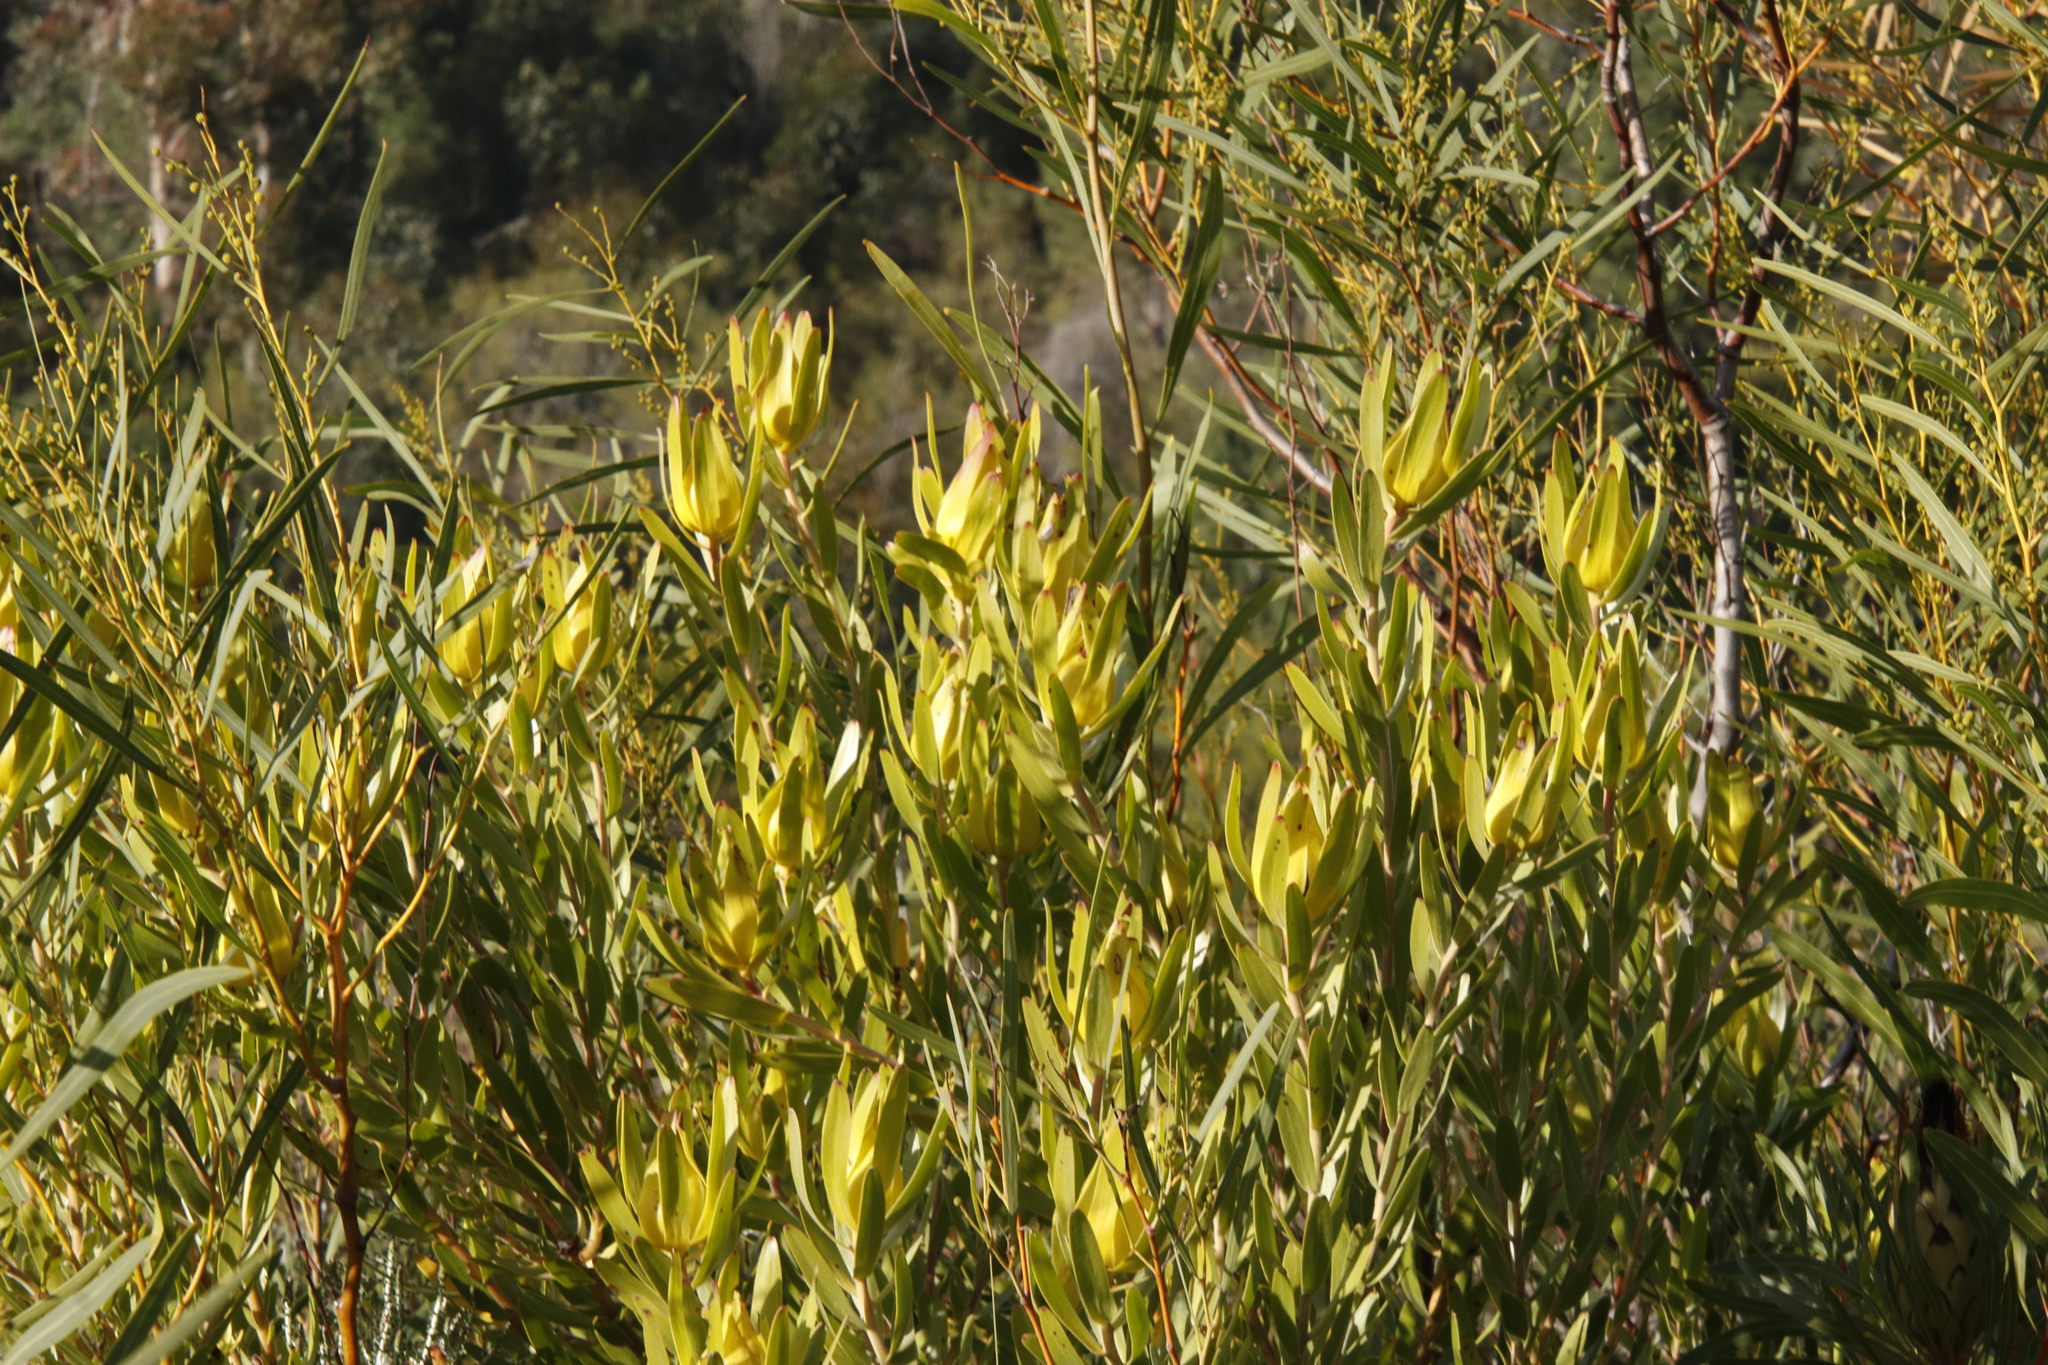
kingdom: Plantae
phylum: Tracheophyta
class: Magnoliopsida
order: Proteales
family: Proteaceae
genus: Leucadendron
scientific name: Leucadendron laureolum
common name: Golden sunshinebush
